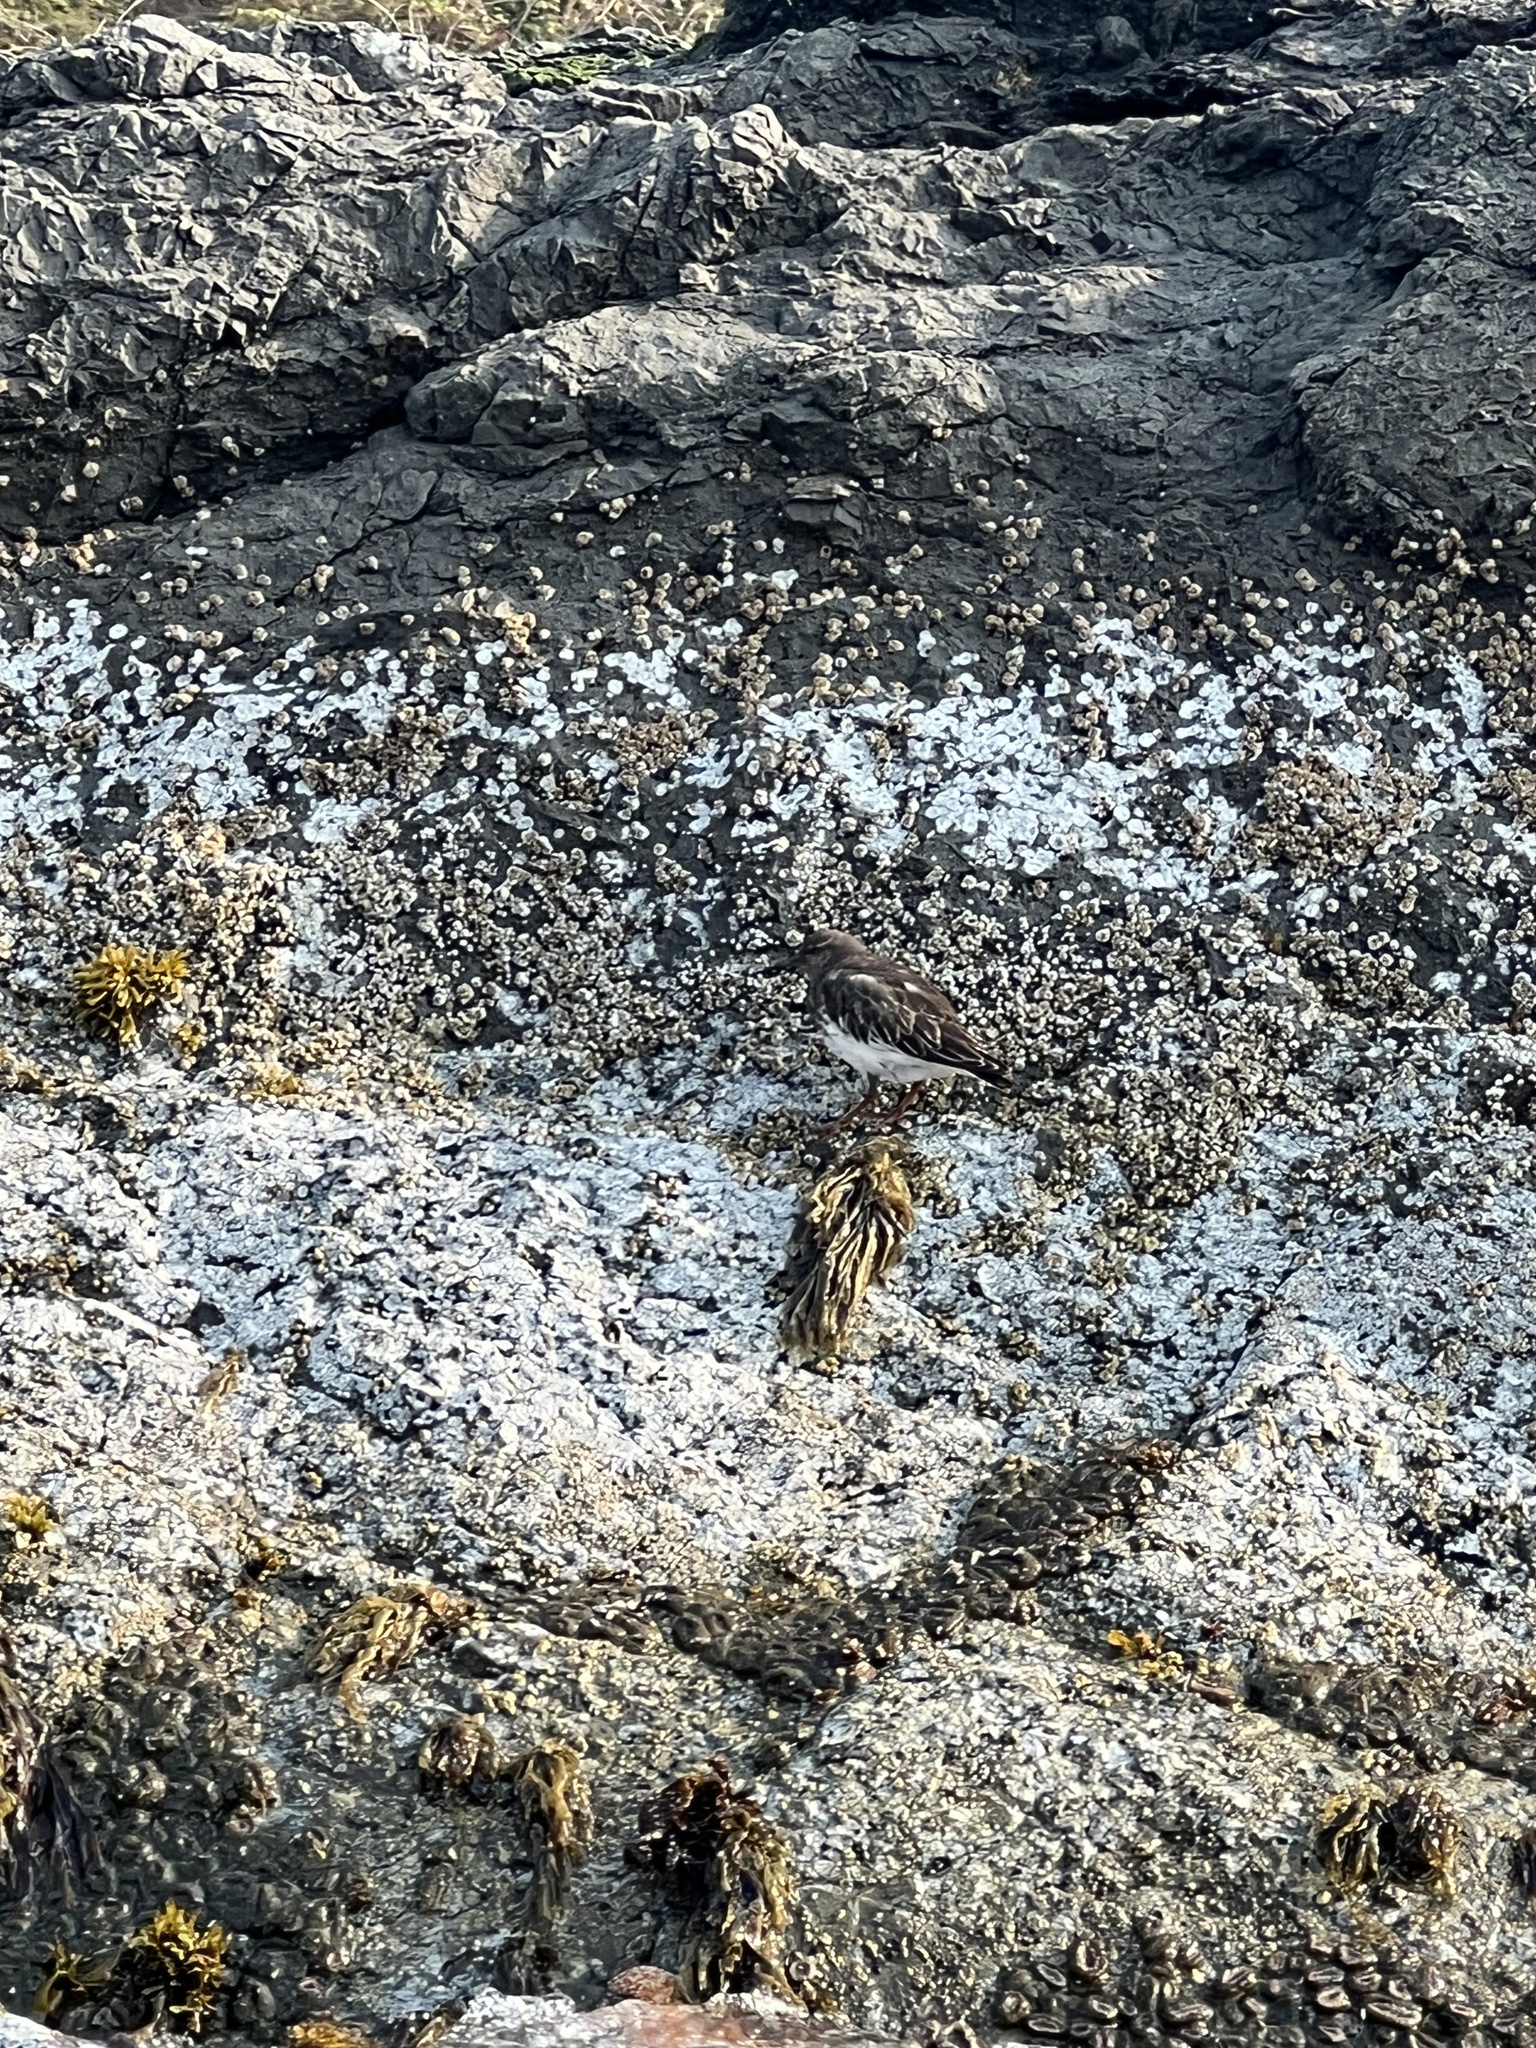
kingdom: Animalia
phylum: Chordata
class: Aves
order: Charadriiformes
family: Scolopacidae
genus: Arenaria
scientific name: Arenaria melanocephala
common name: Black turnstone
